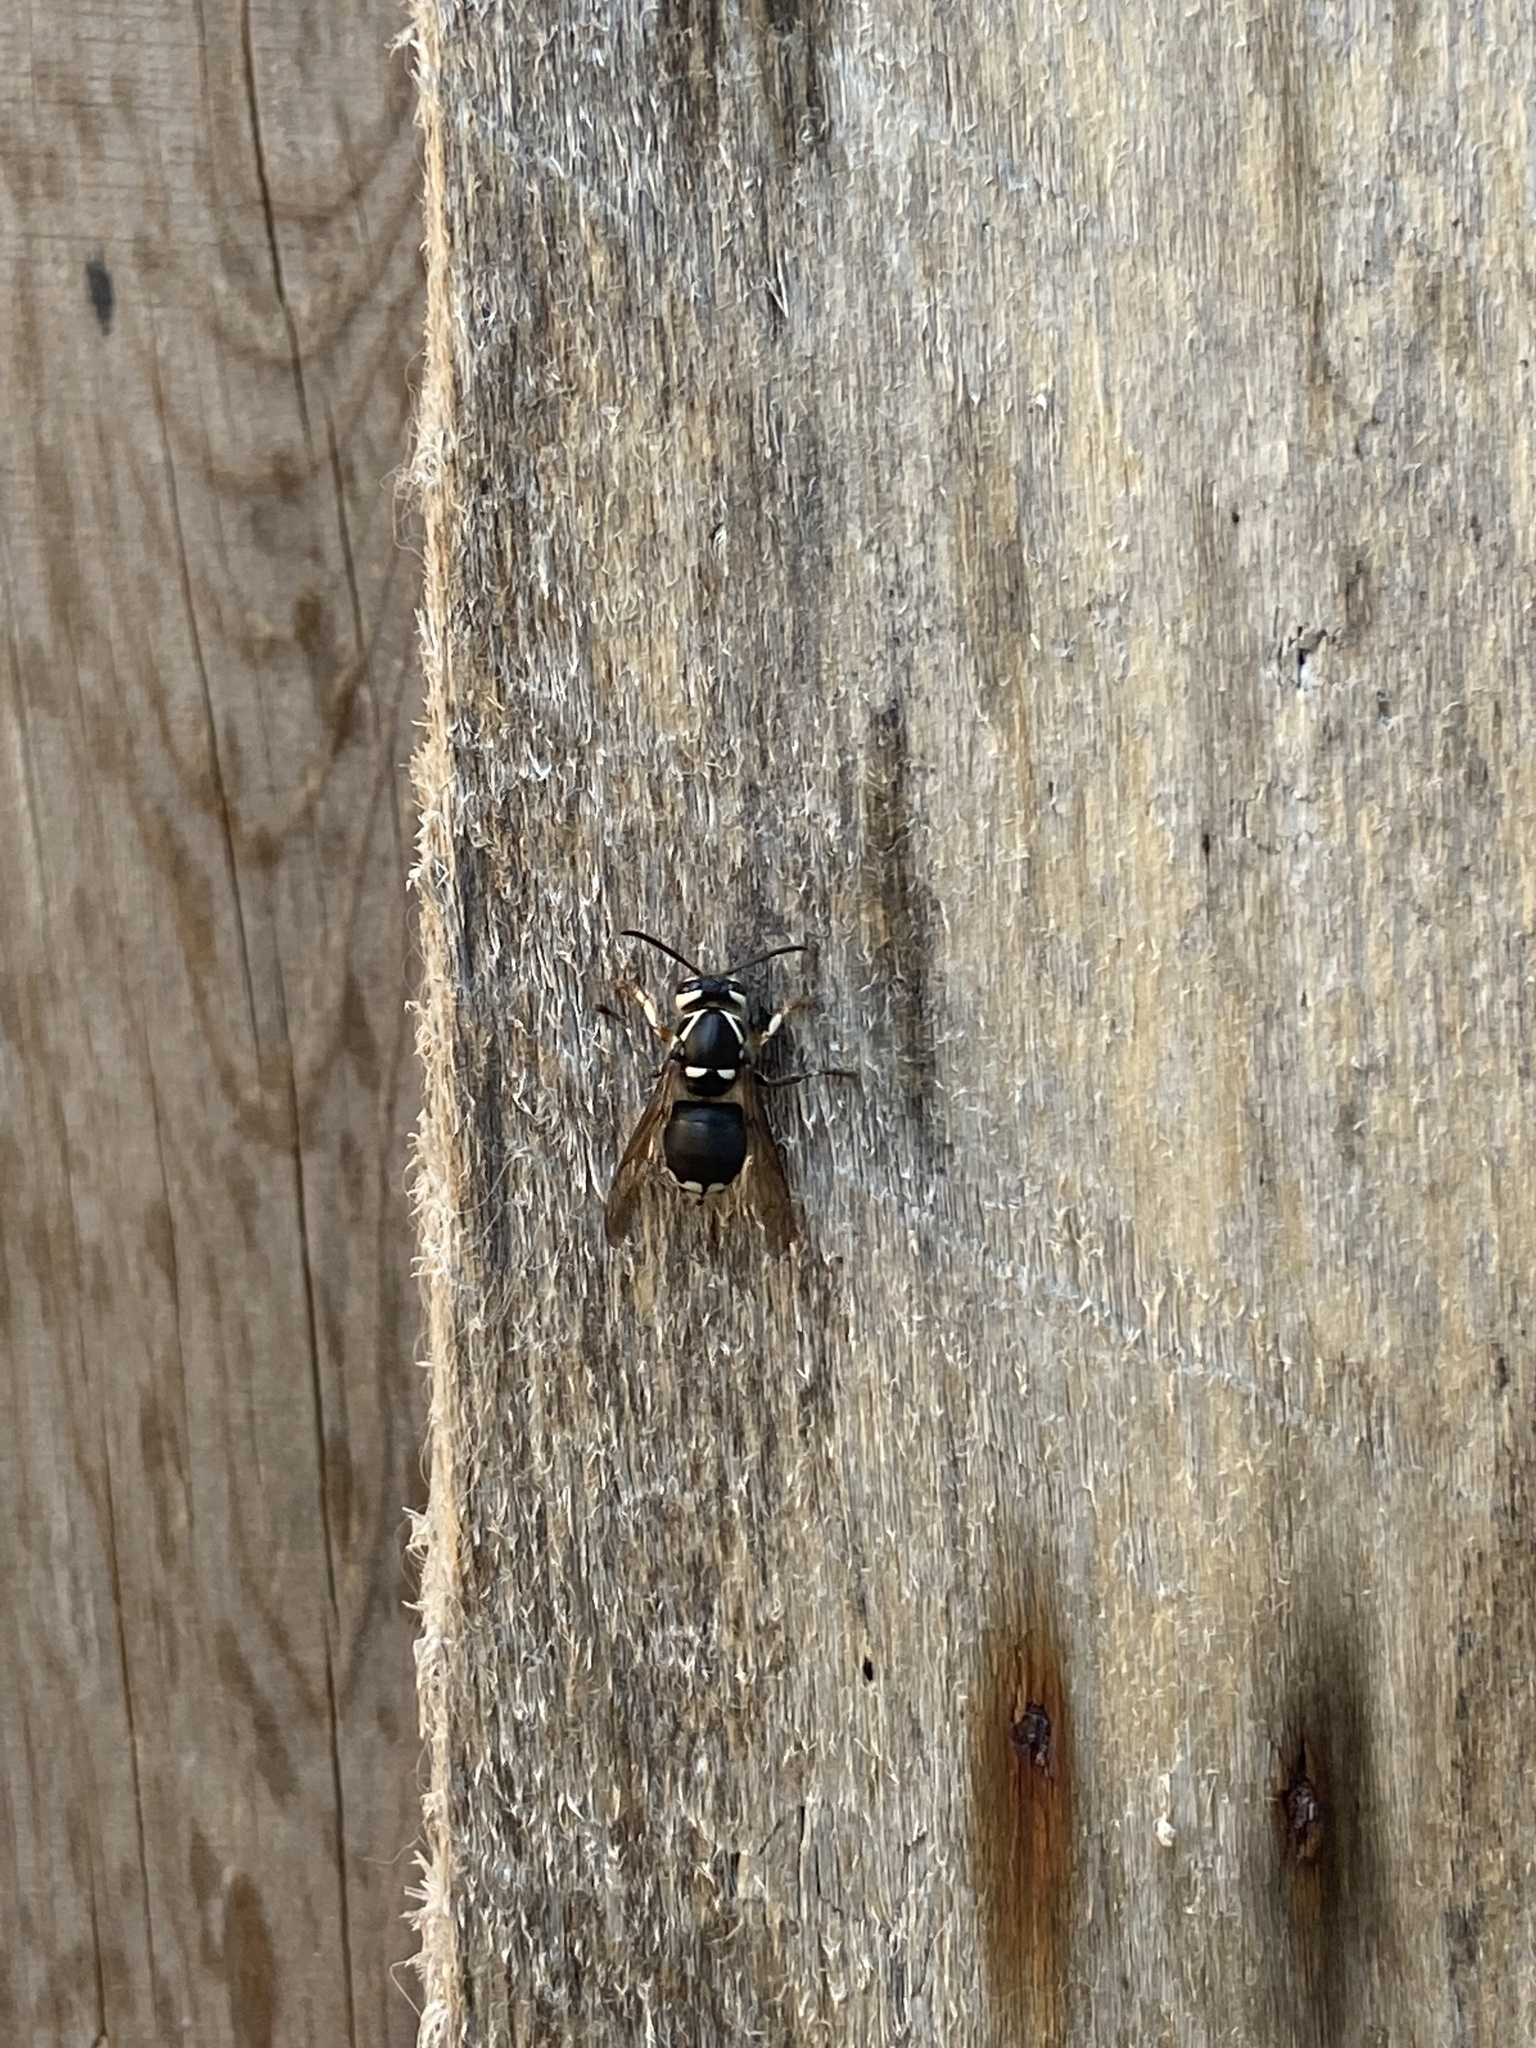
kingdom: Animalia
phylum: Arthropoda
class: Insecta
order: Hymenoptera
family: Vespidae
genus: Dolichovespula
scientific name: Dolichovespula maculata
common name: Bald-faced hornet
